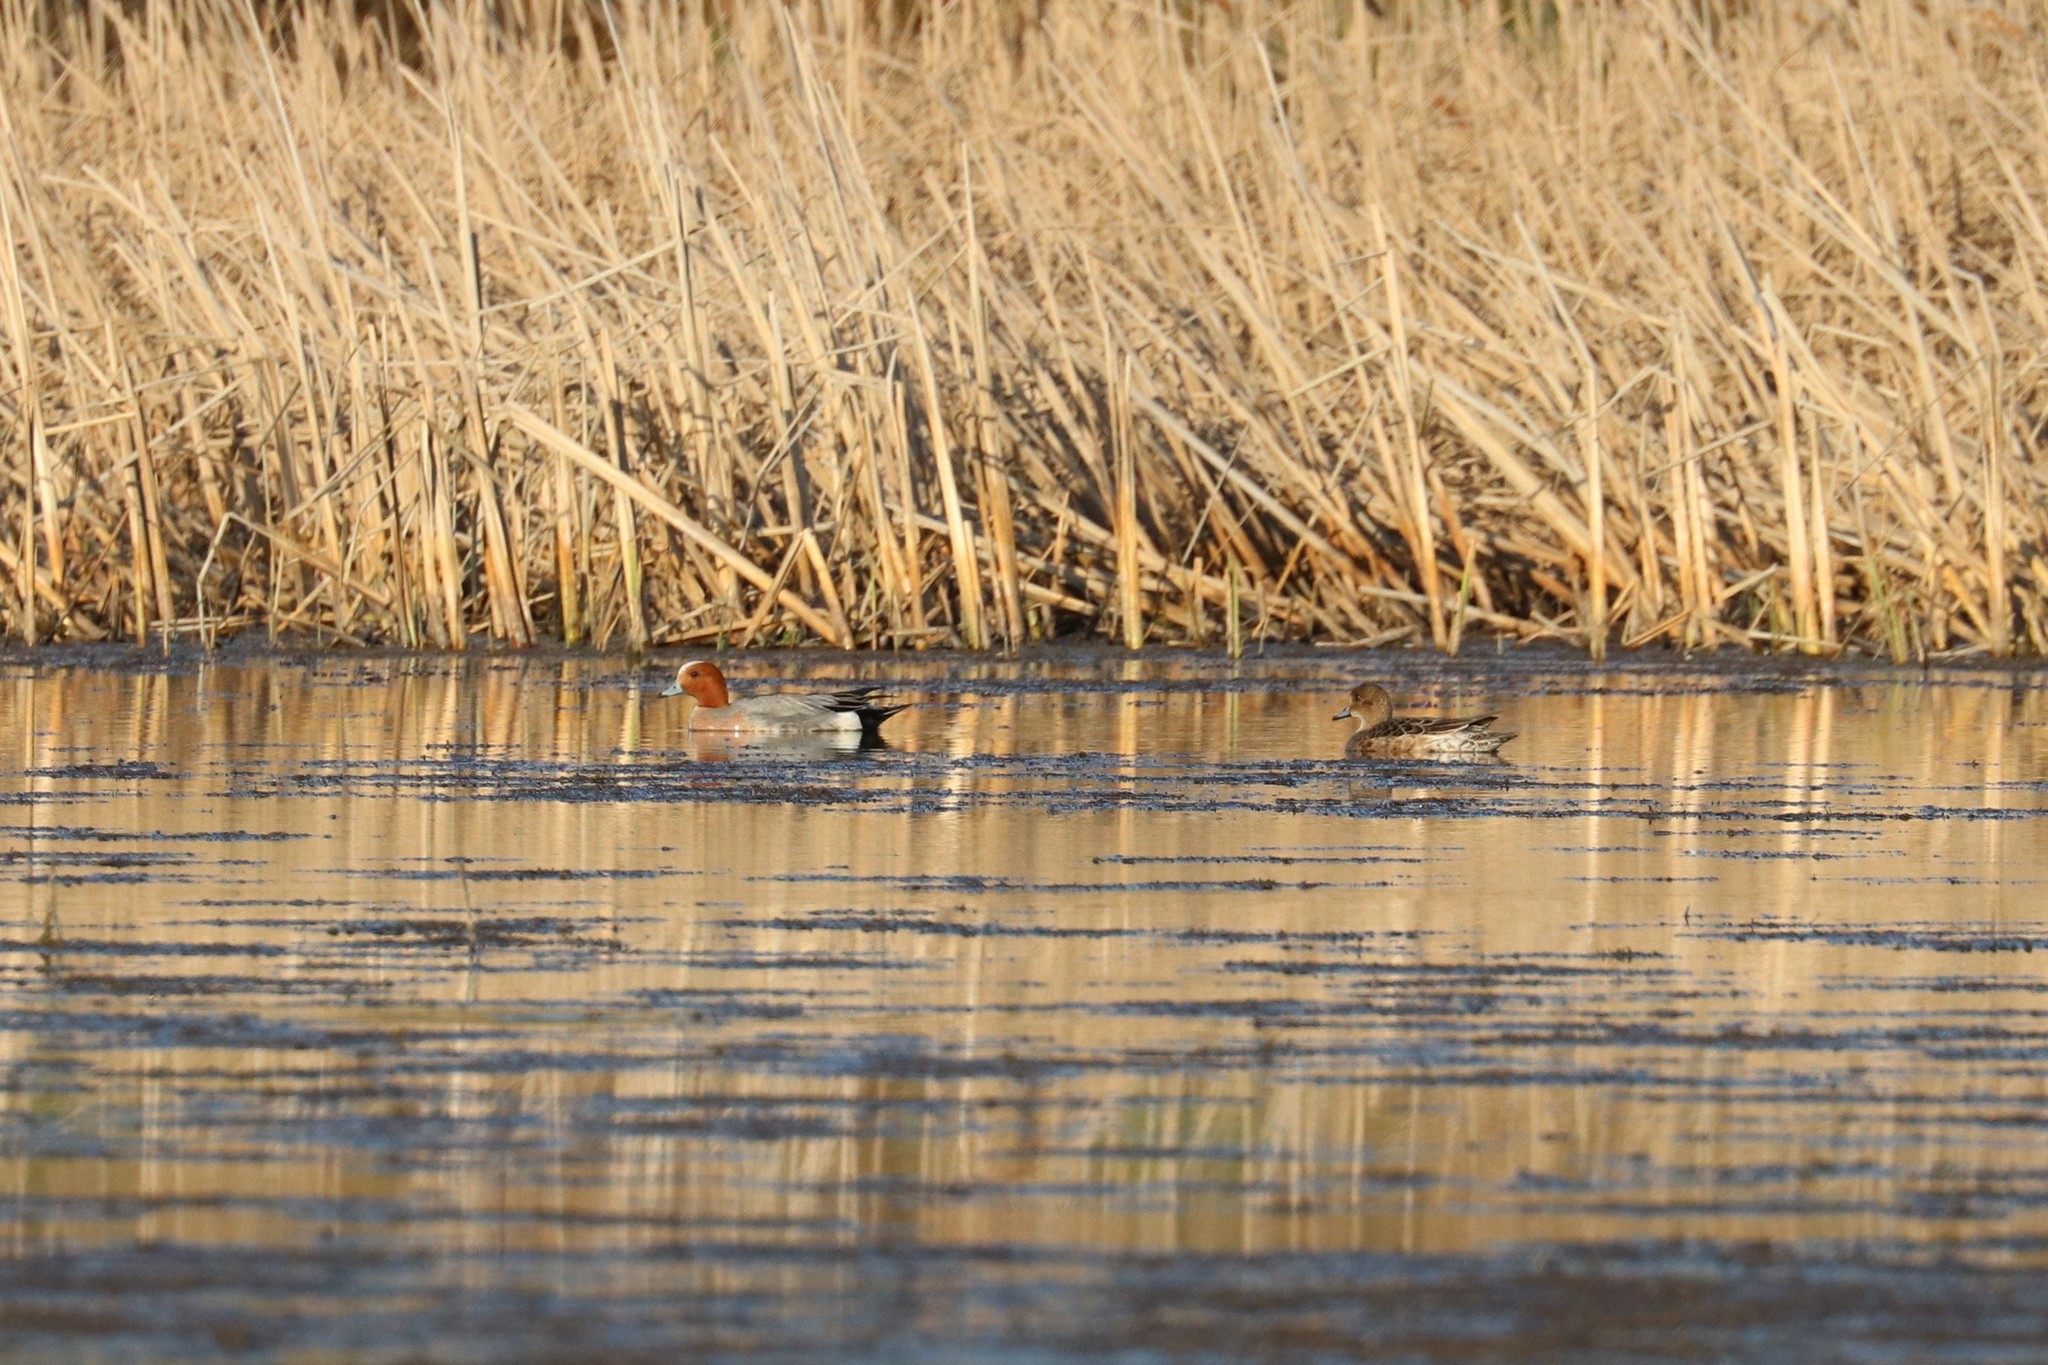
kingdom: Animalia
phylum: Chordata
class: Aves
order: Anseriformes
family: Anatidae
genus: Mareca
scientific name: Mareca penelope
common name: Eurasian wigeon
